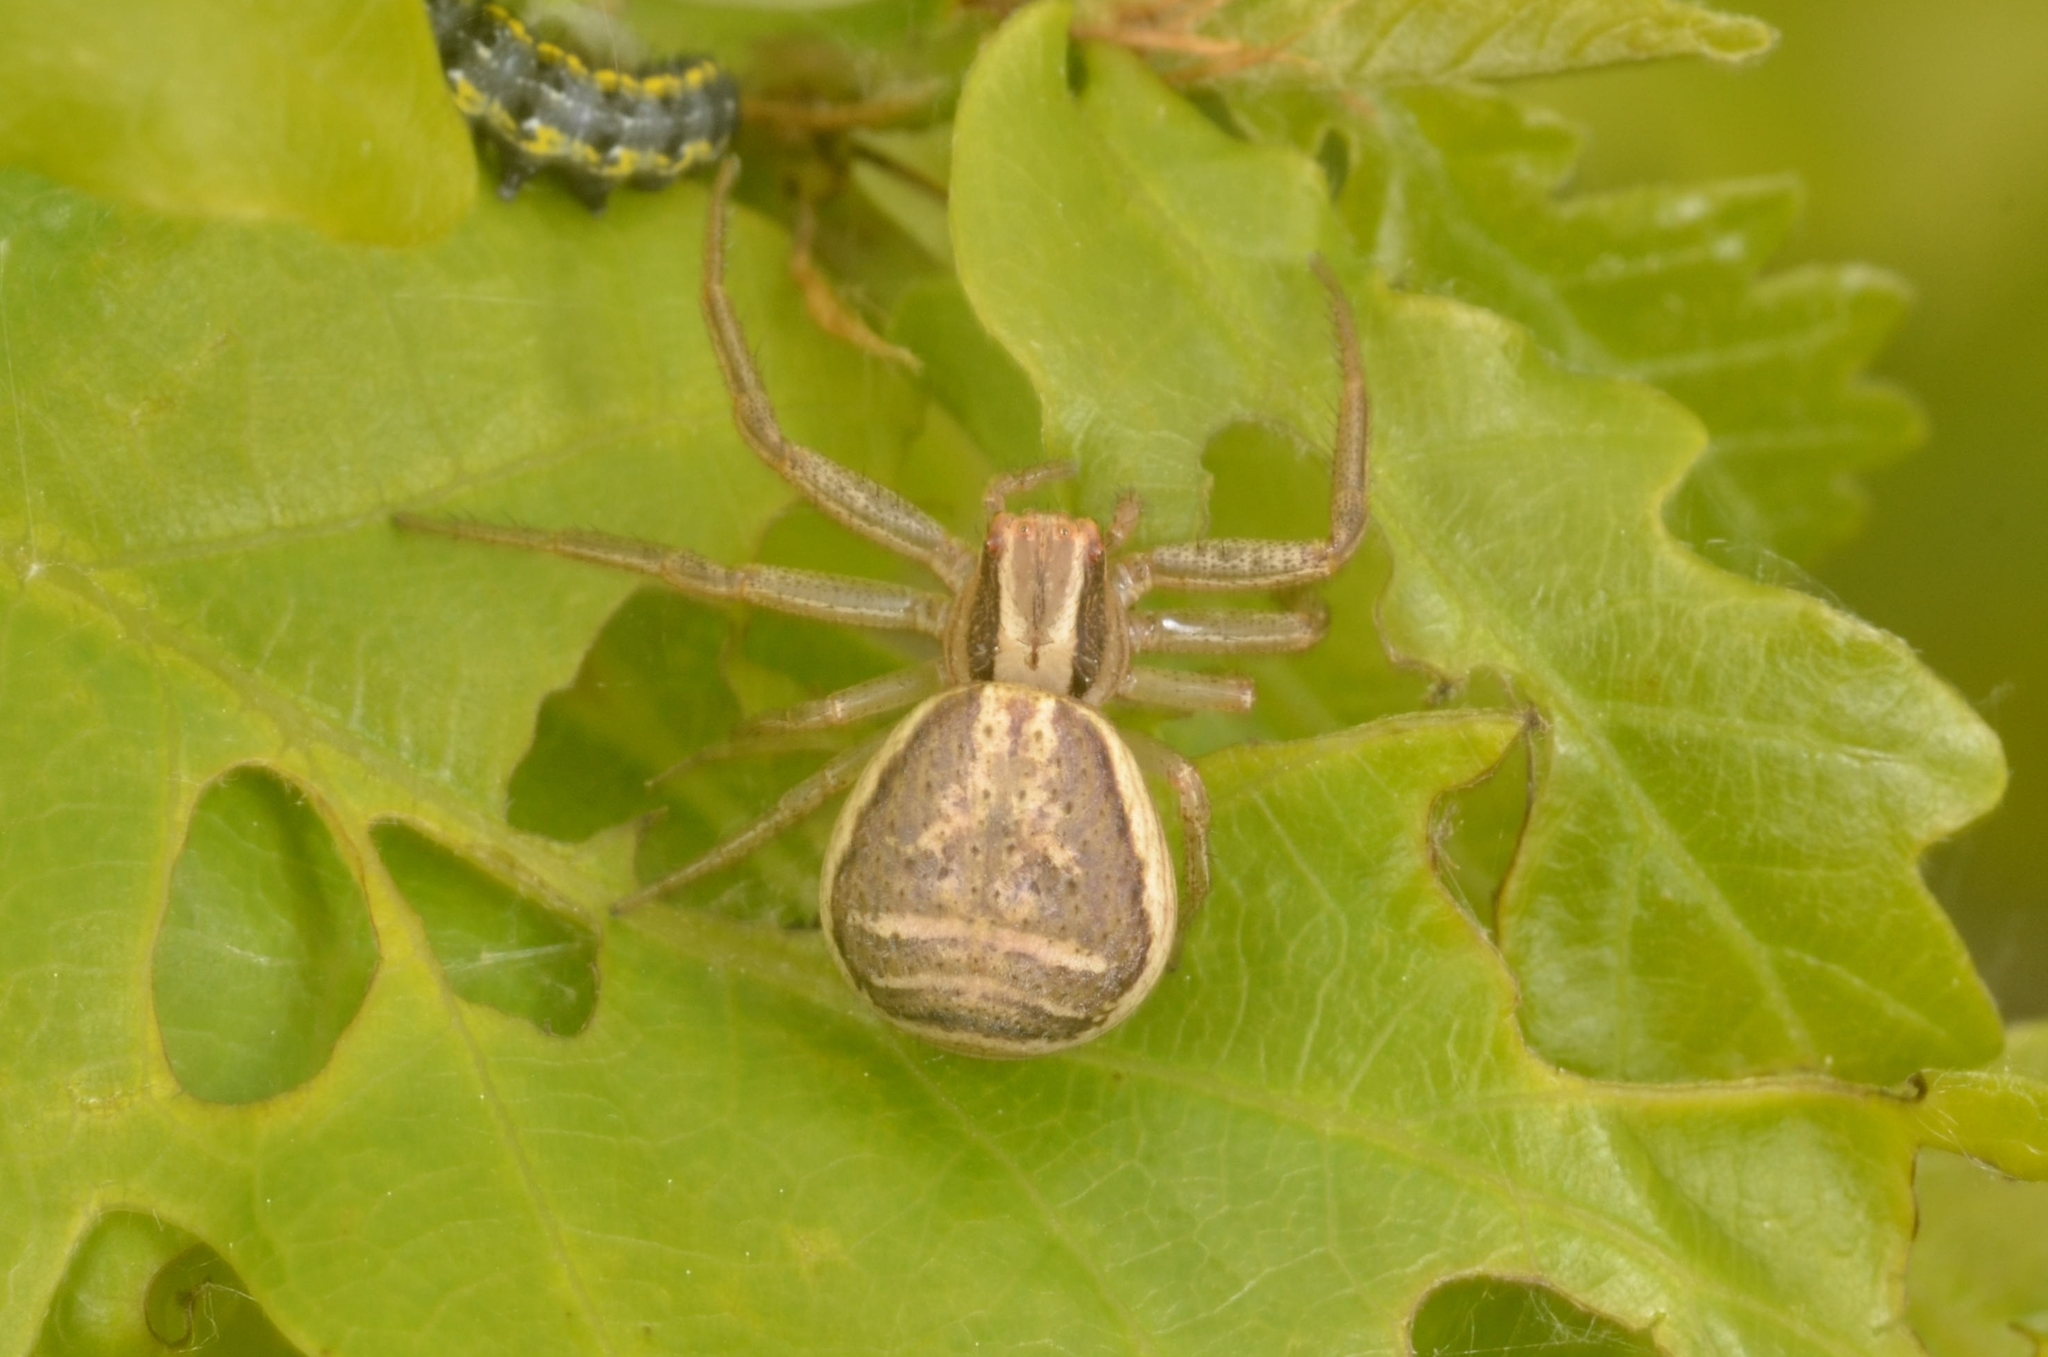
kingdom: Animalia
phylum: Arthropoda
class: Arachnida
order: Araneae
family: Thomisidae
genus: Xysticus
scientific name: Xysticus ulmi
